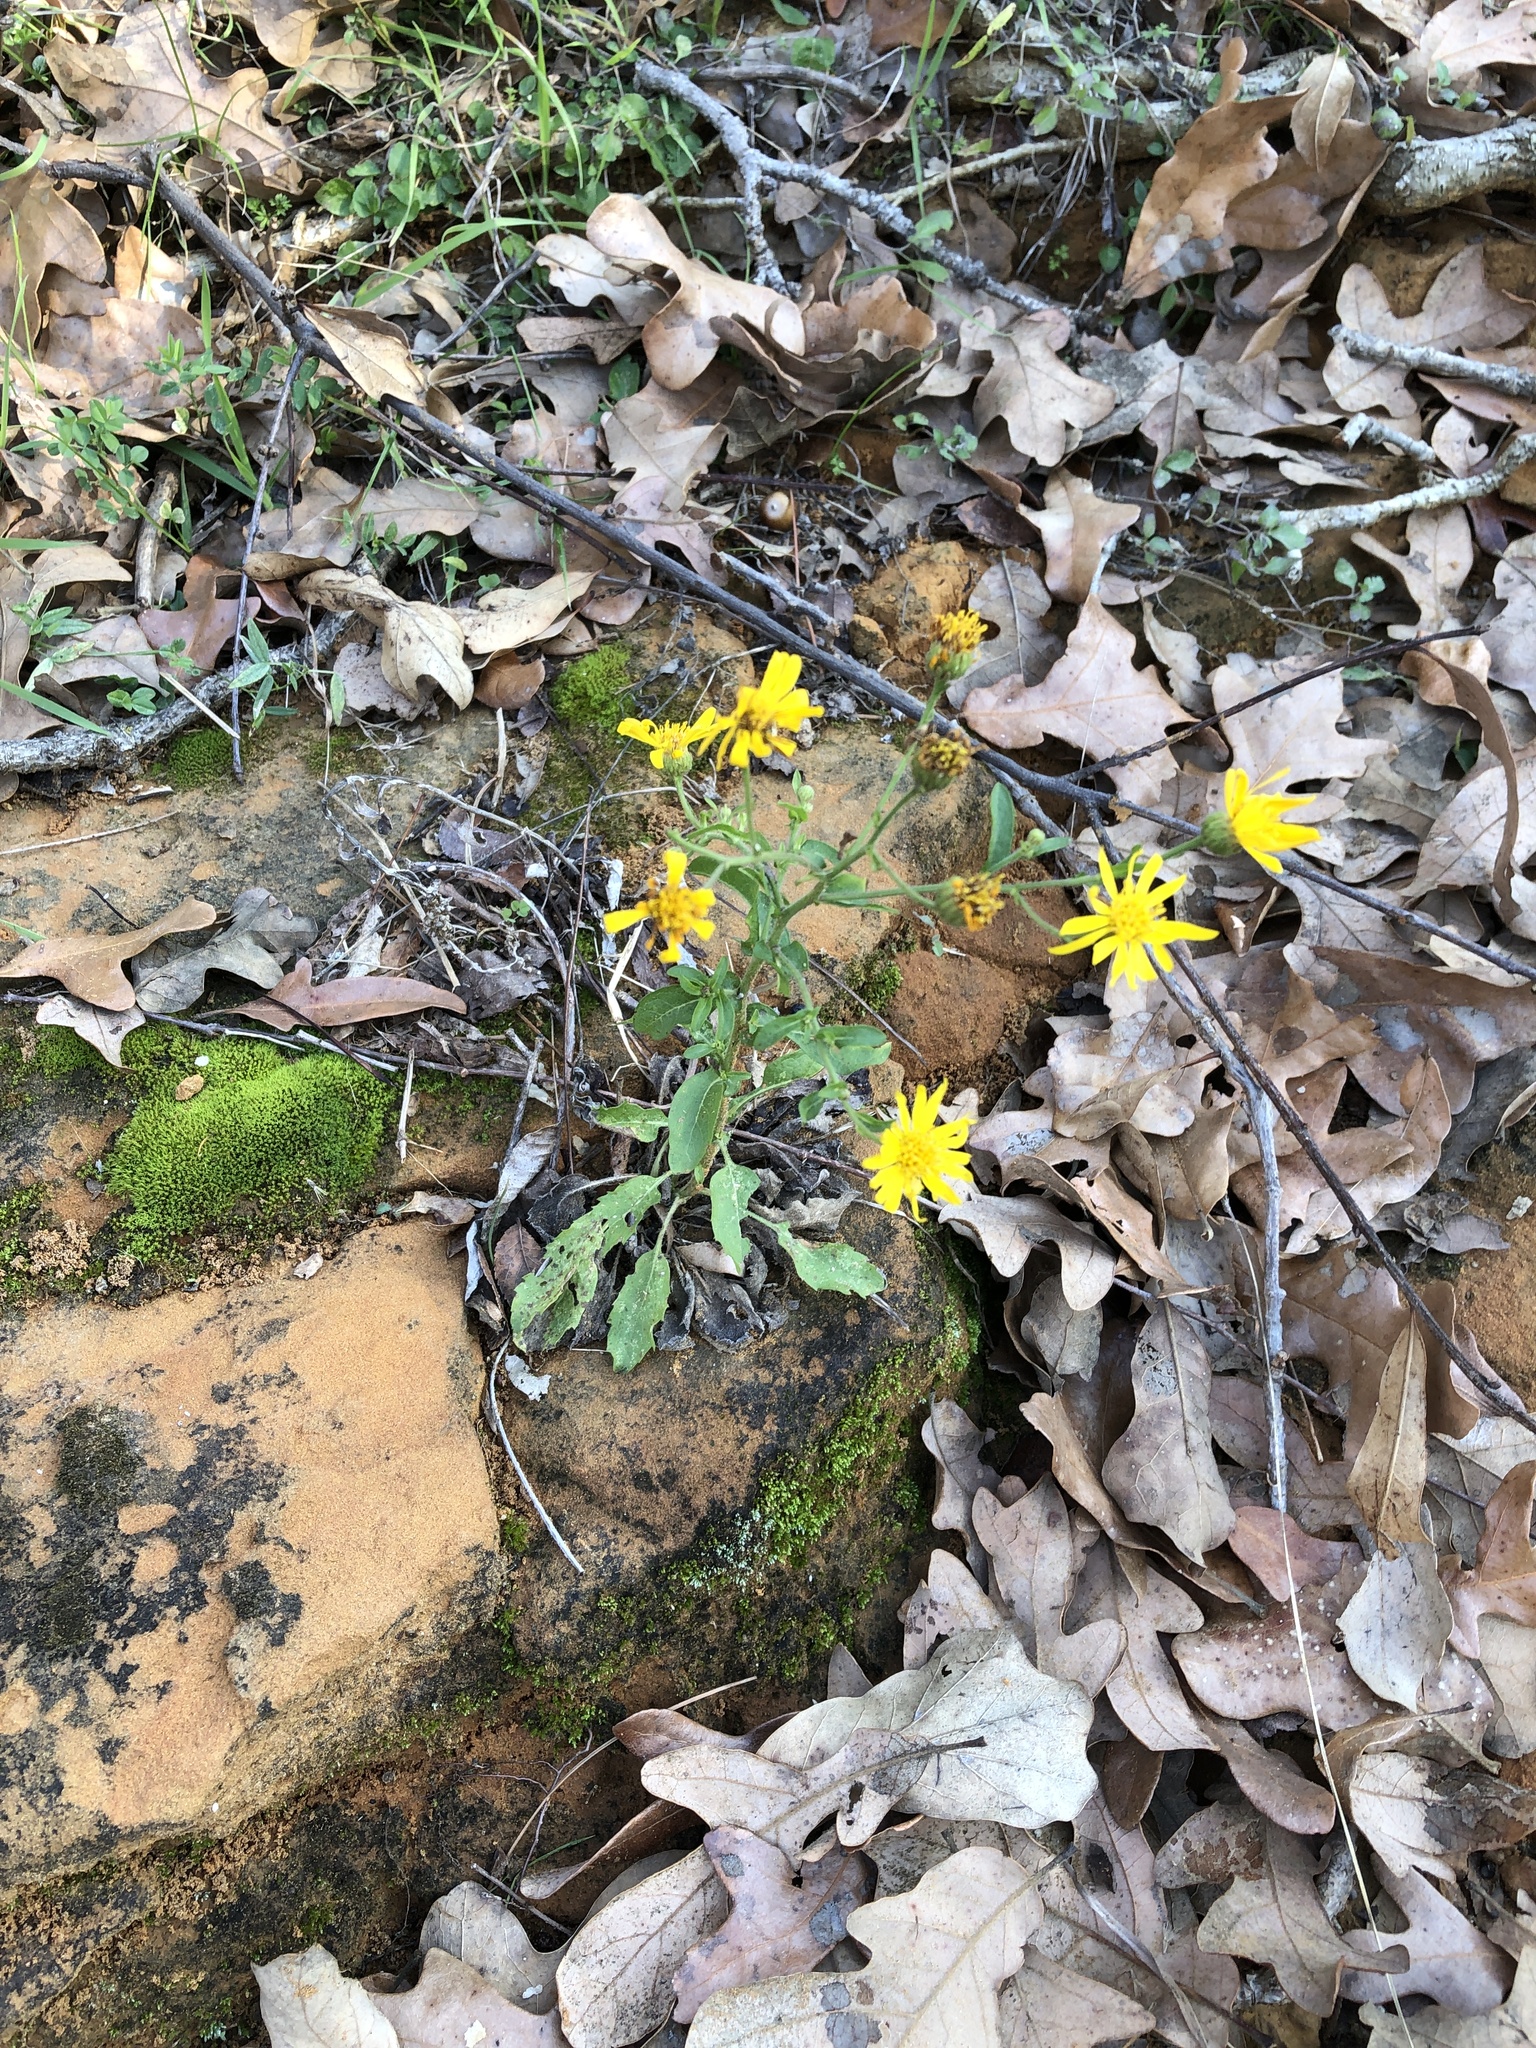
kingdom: Plantae
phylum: Tracheophyta
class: Magnoliopsida
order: Asterales
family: Asteraceae
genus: Heterotheca
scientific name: Heterotheca subaxillaris
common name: Camphorweed
